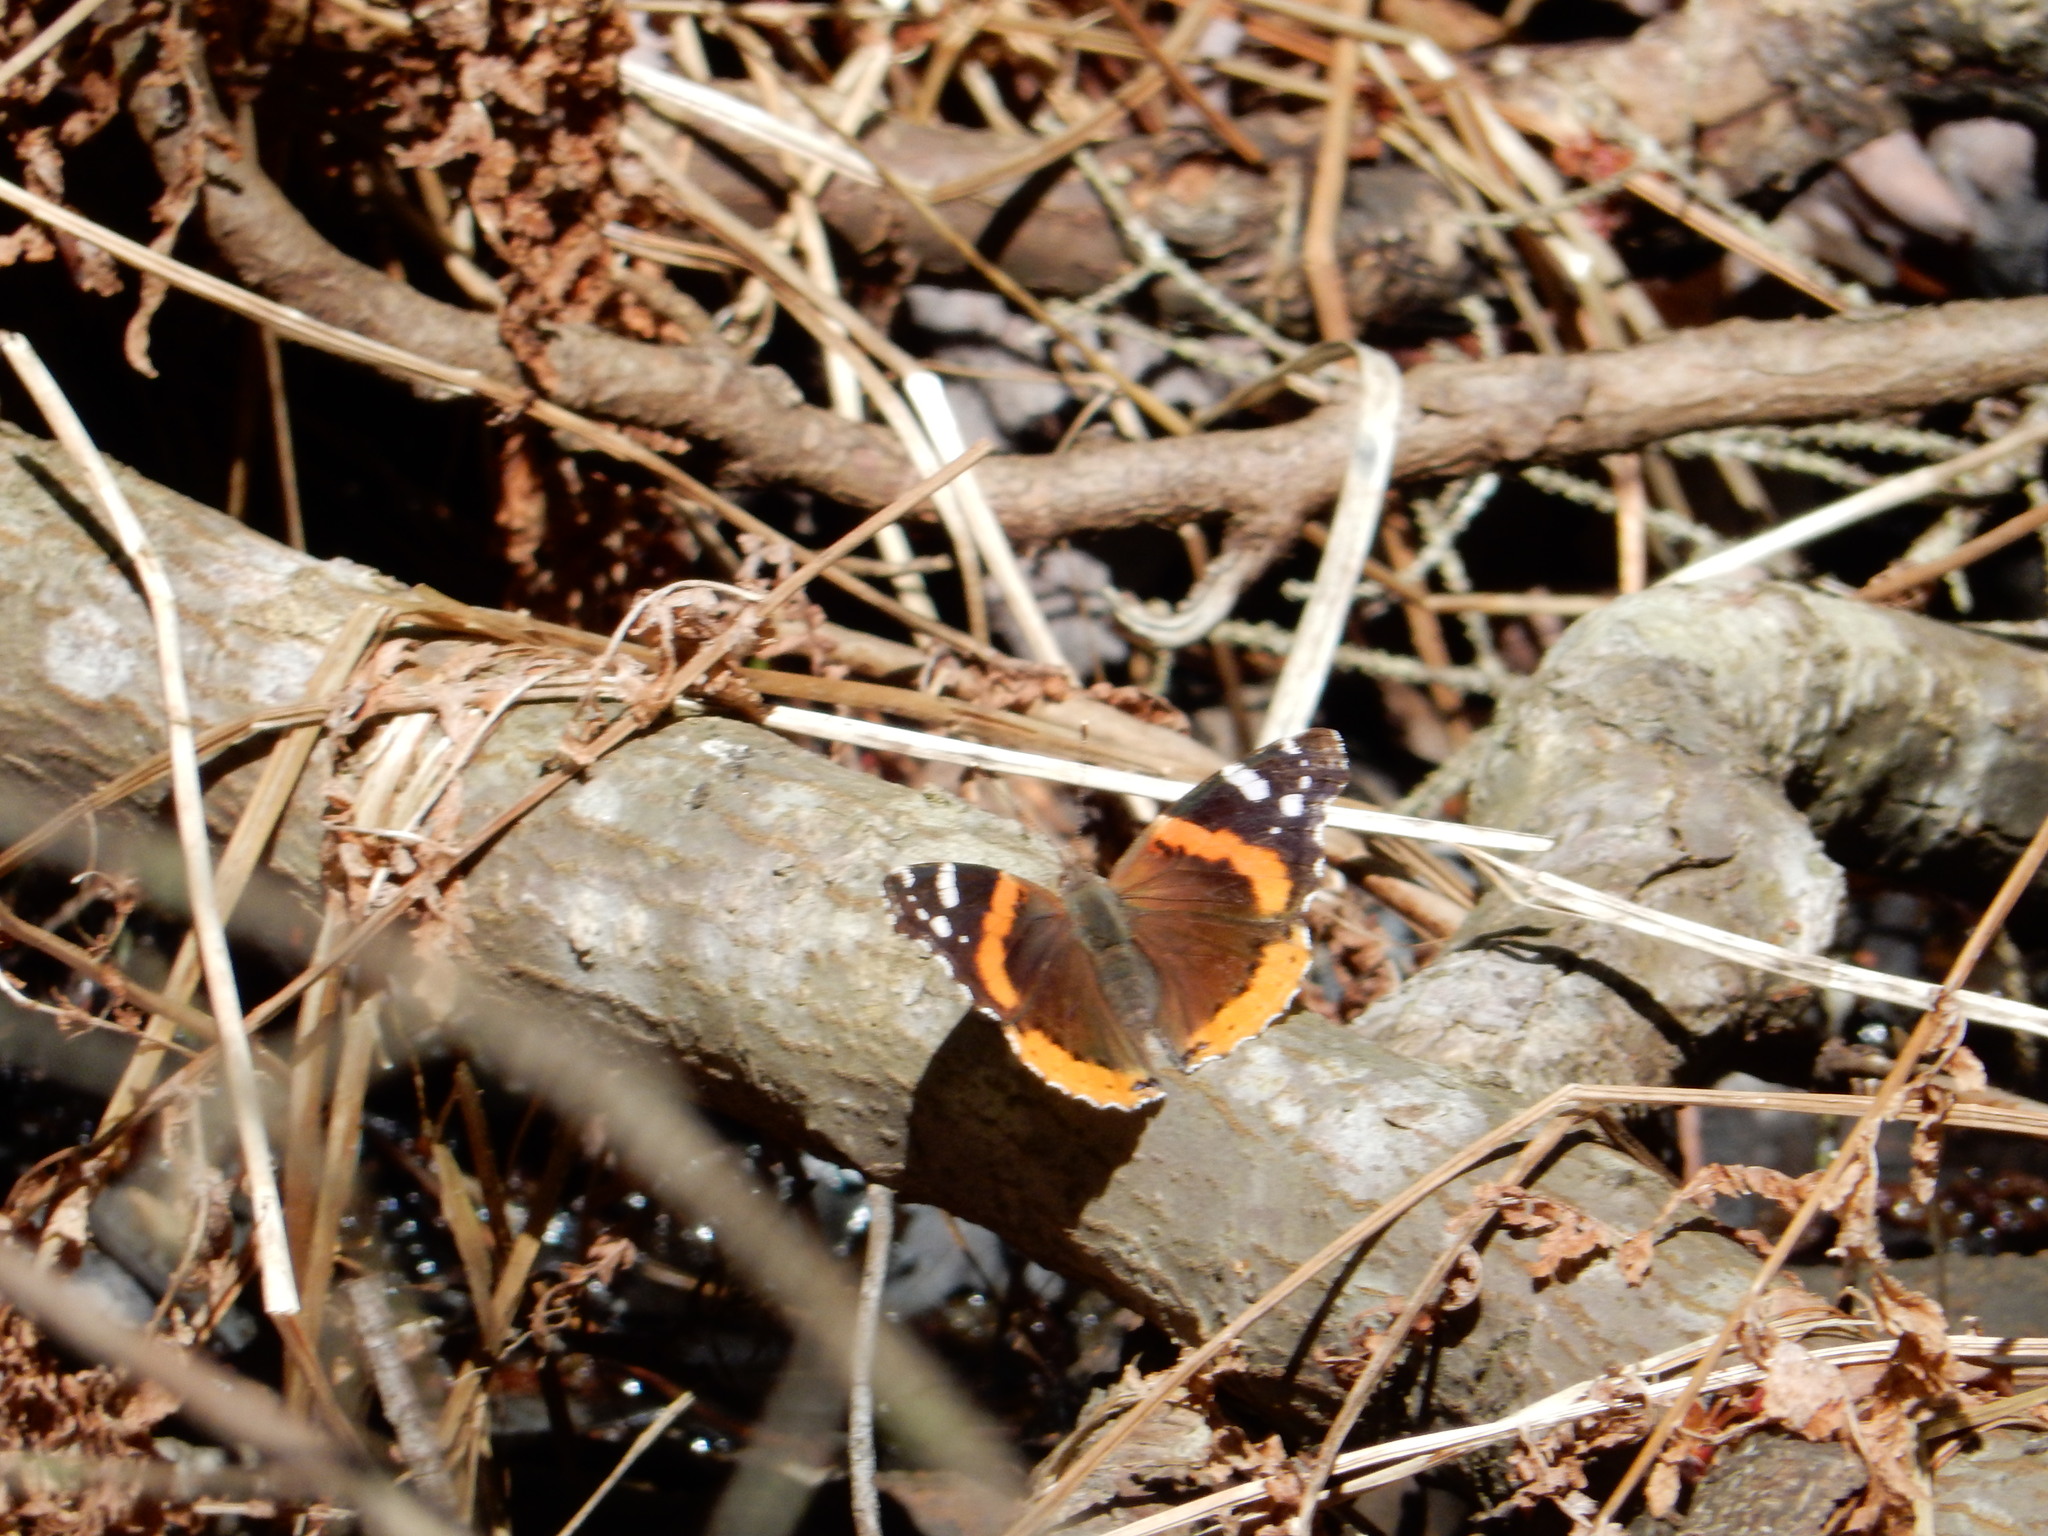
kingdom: Animalia
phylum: Arthropoda
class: Insecta
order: Lepidoptera
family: Nymphalidae
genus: Vanessa
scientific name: Vanessa atalanta
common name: Red admiral
